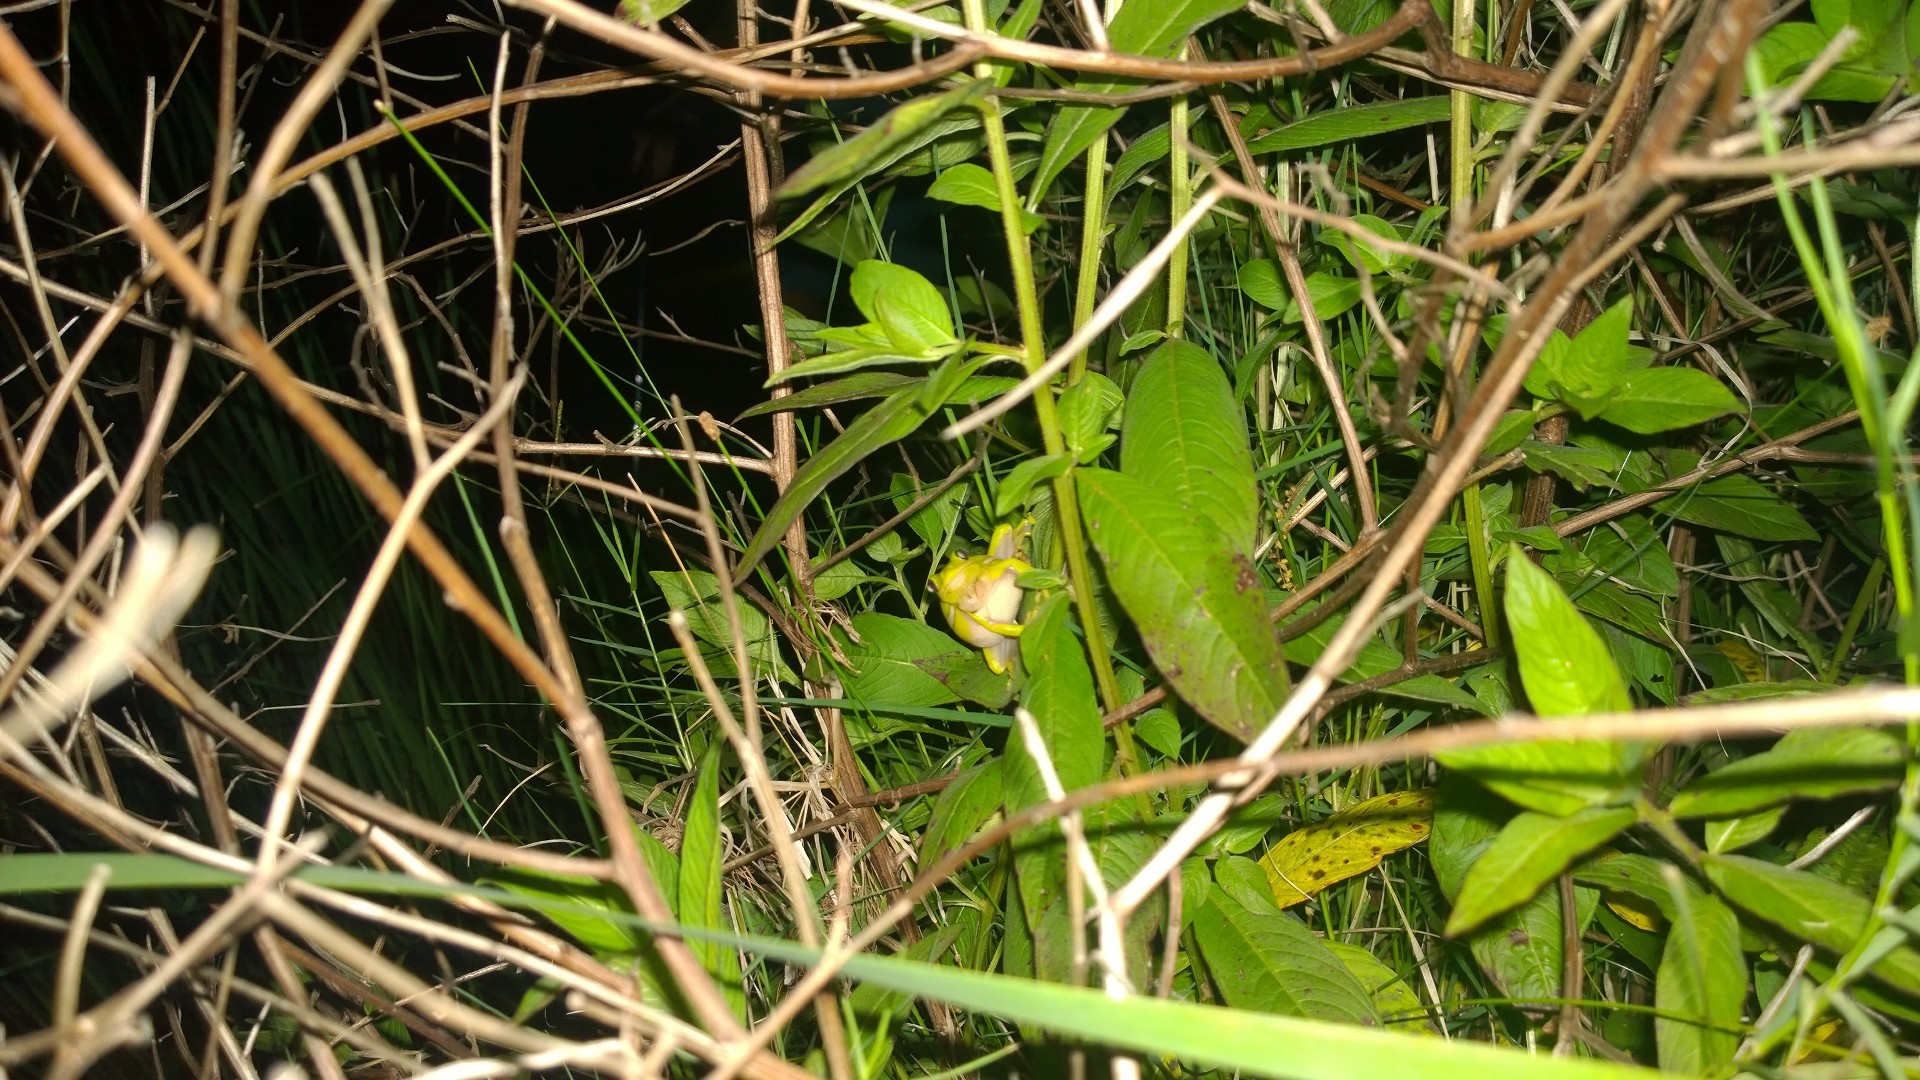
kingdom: Animalia
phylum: Chordata
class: Amphibia
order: Anura
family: Hylidae
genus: Dryophytes
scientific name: Dryophytes cinereus
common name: Green treefrog
